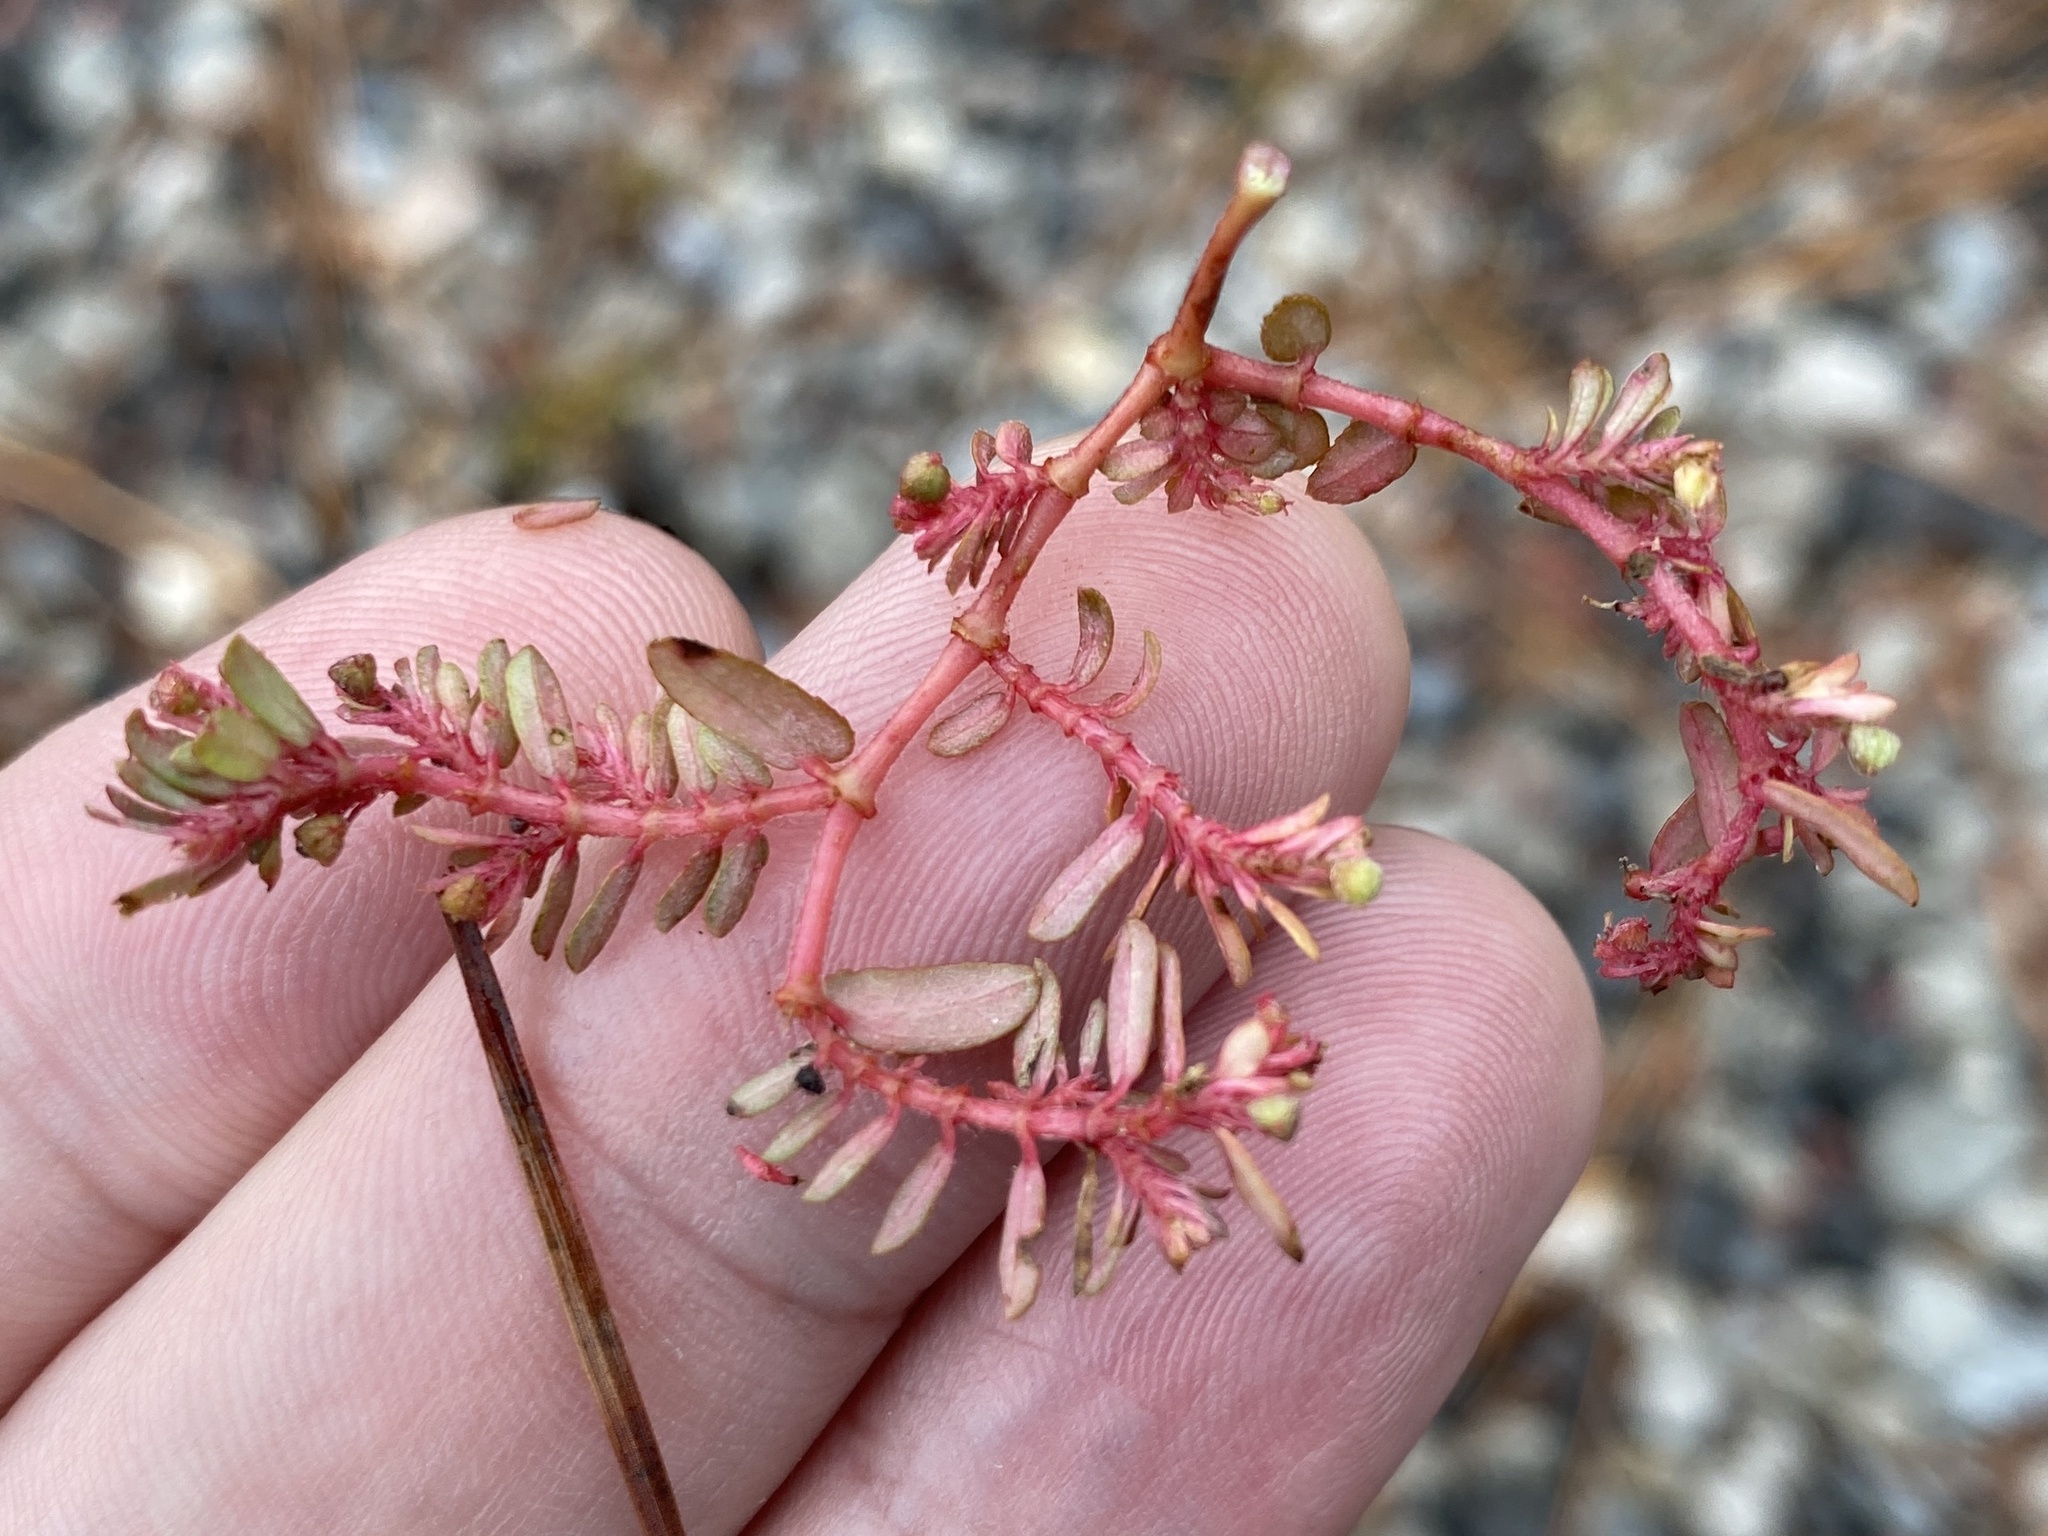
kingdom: Plantae
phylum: Tracheophyta
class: Magnoliopsida
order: Malpighiales
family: Euphorbiaceae
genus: Euphorbia
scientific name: Euphorbia maculata
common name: Spotted spurge
